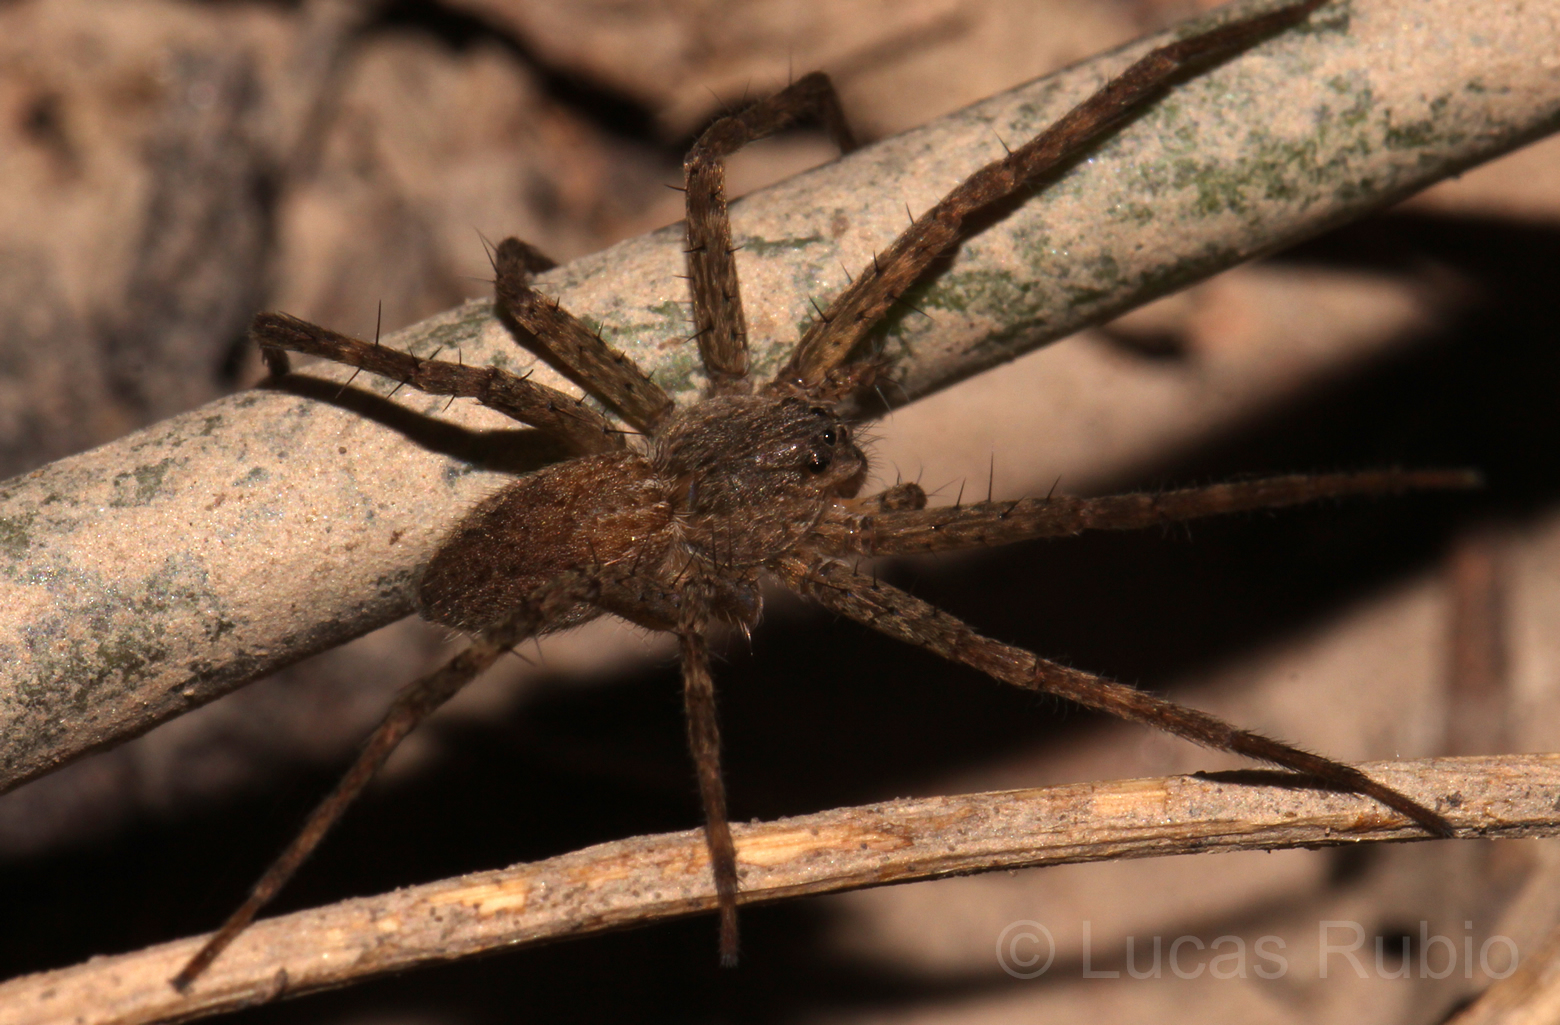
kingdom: Animalia
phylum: Arthropoda
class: Arachnida
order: Araneae
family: Pisauridae
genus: Architis
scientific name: Architis capricorna
